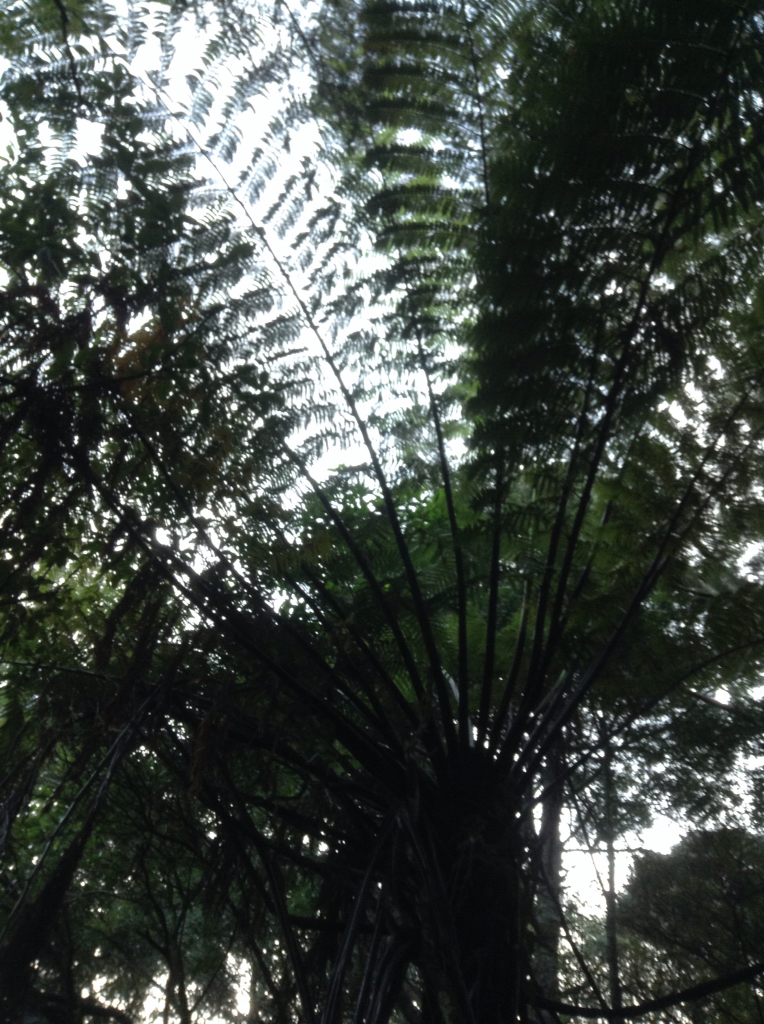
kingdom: Plantae
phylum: Tracheophyta
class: Polypodiopsida
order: Cyatheales
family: Cyatheaceae
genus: Sphaeropteris
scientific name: Sphaeropteris medullaris
